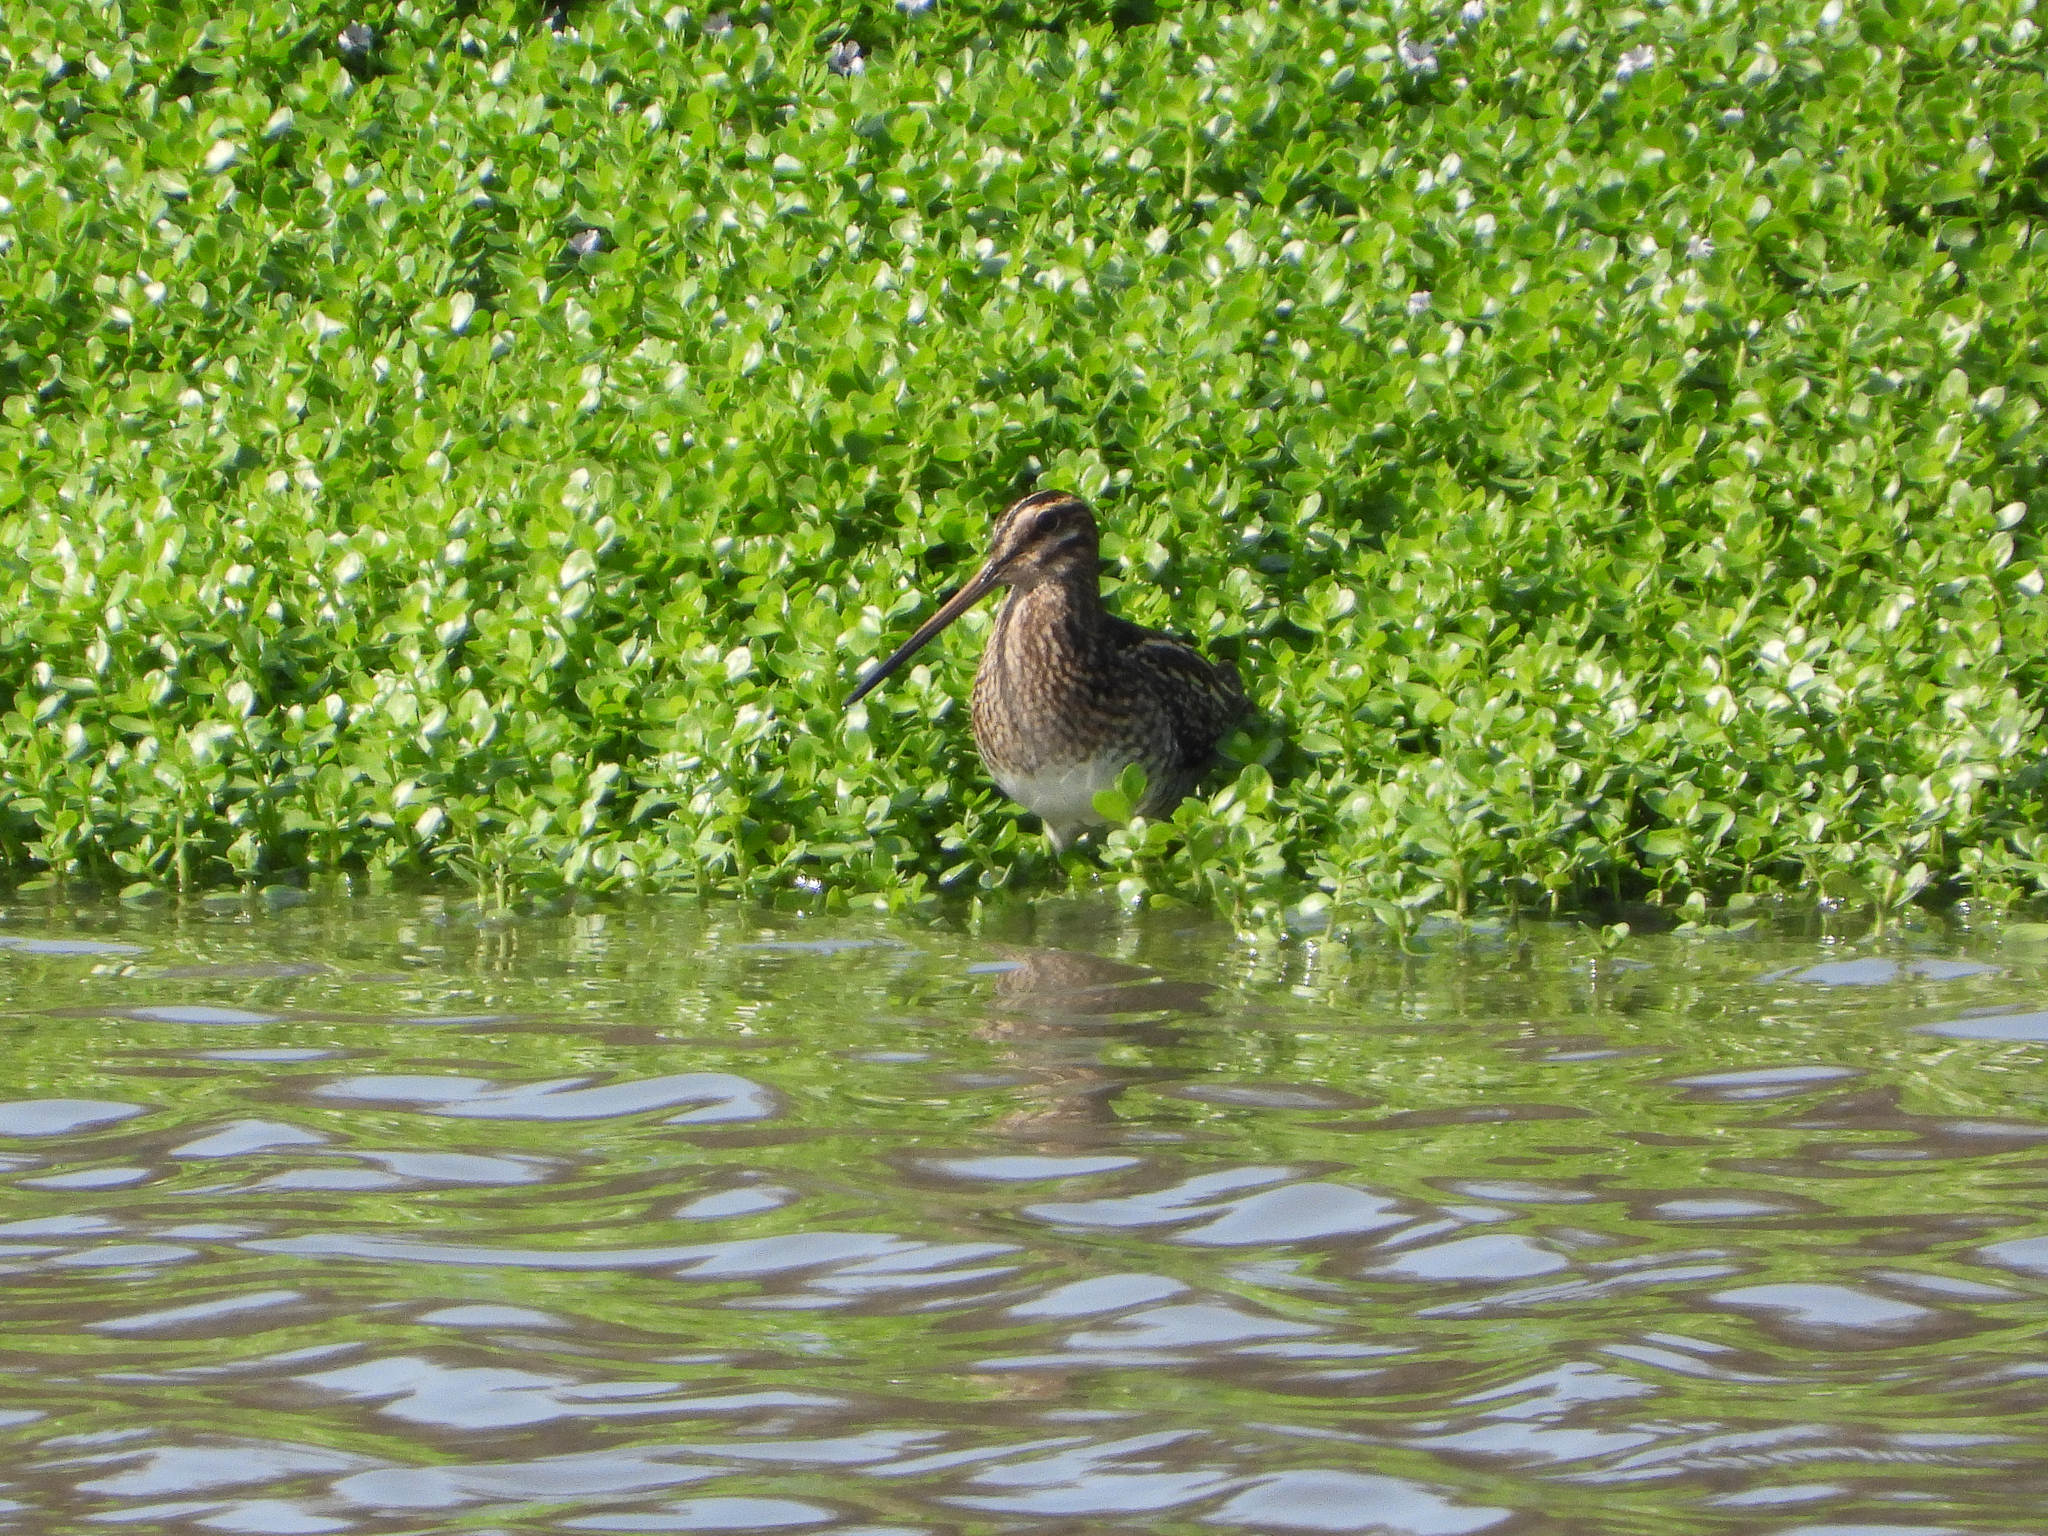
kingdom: Animalia
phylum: Chordata
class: Aves
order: Charadriiformes
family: Scolopacidae
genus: Gallinago
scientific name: Gallinago delicata
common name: Wilson's snipe
